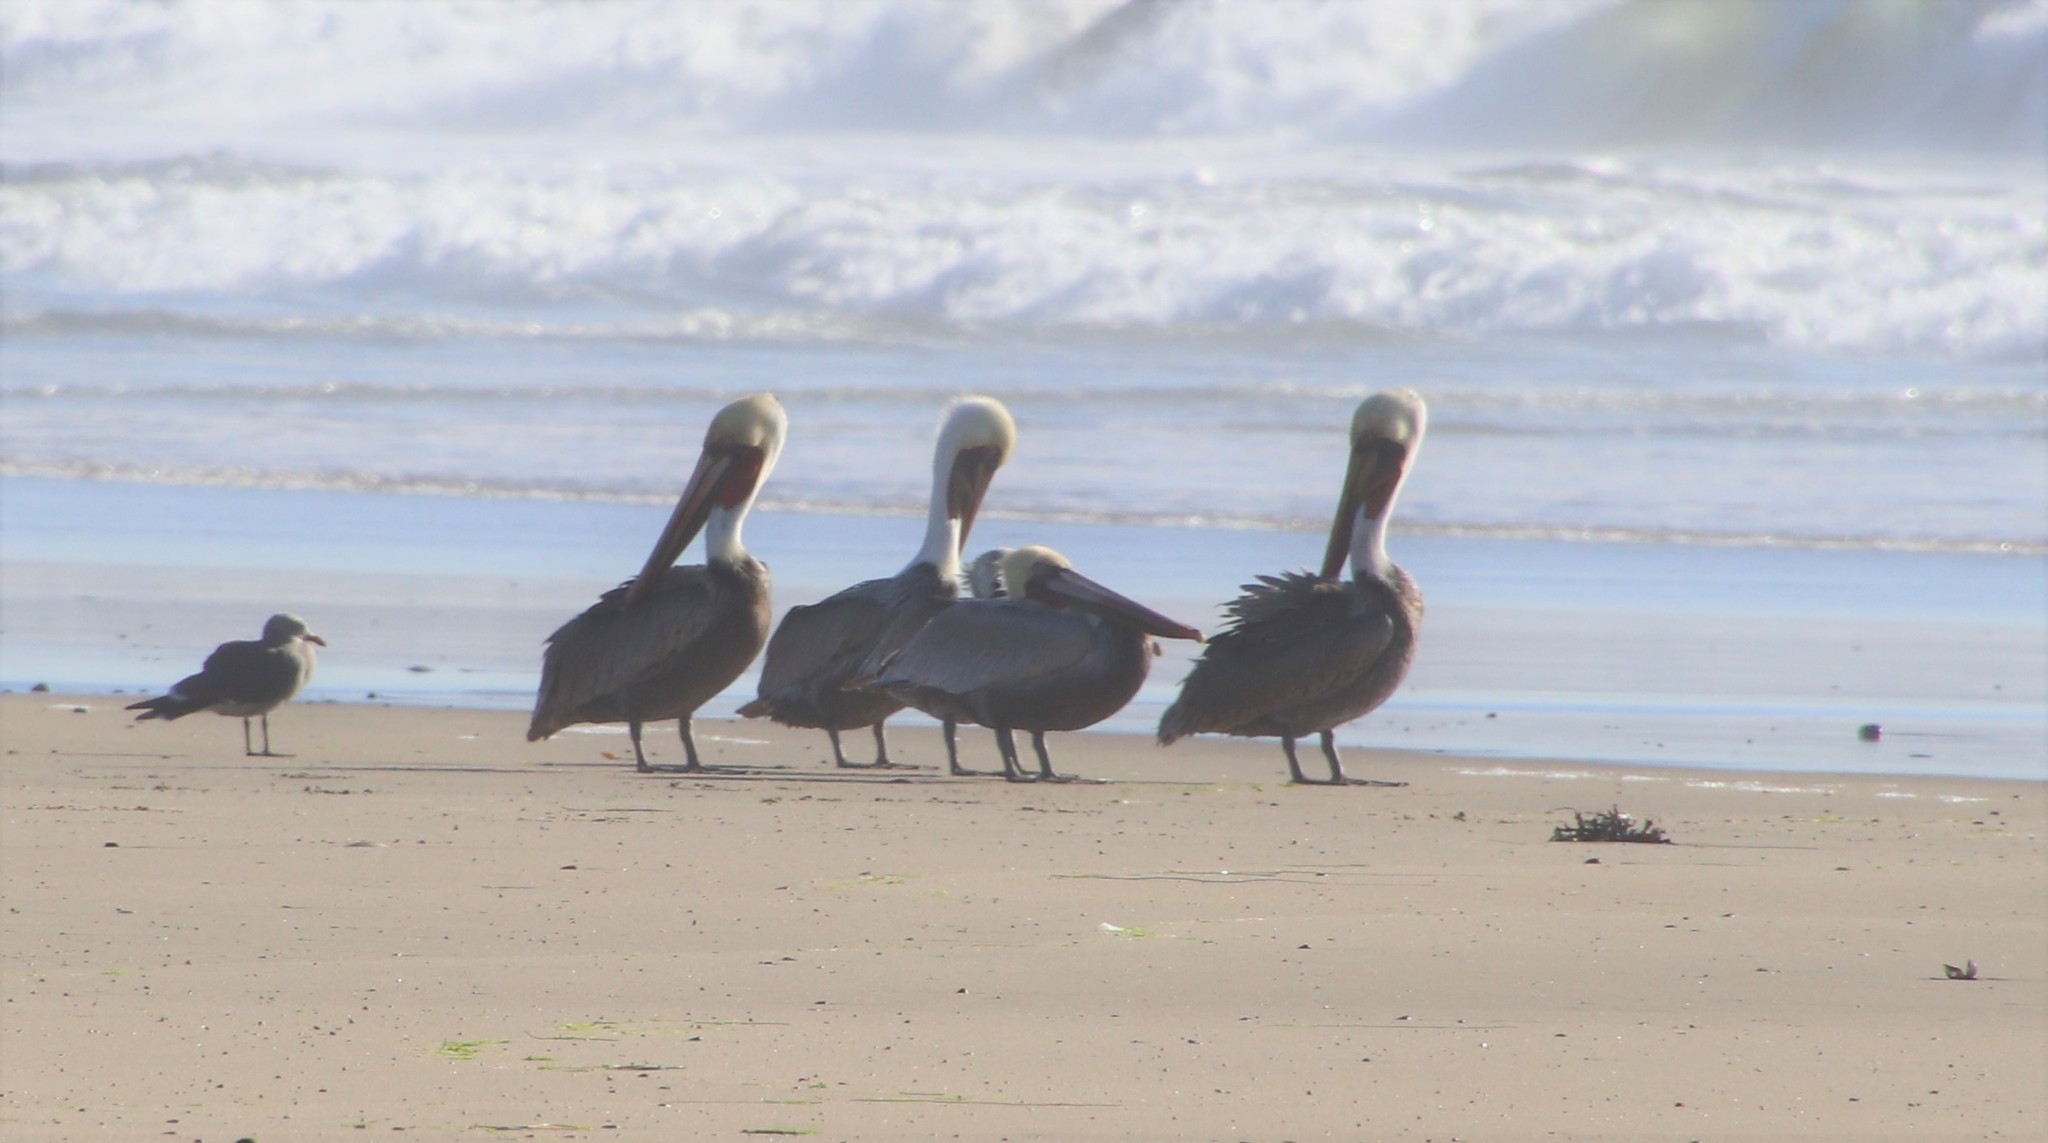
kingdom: Animalia
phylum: Chordata
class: Aves
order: Pelecaniformes
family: Pelecanidae
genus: Pelecanus
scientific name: Pelecanus occidentalis
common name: Brown pelican
